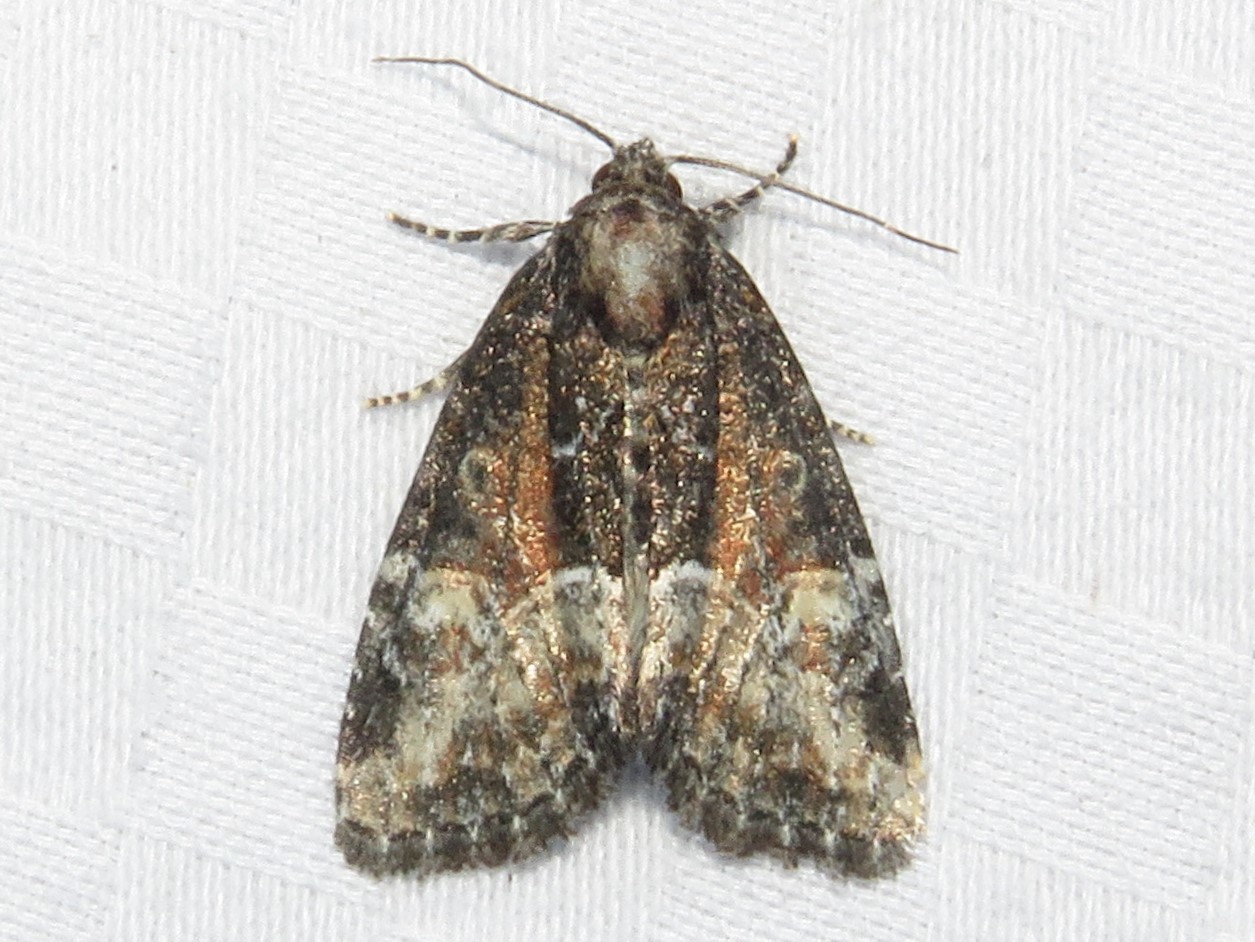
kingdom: Animalia
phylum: Arthropoda
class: Insecta
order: Lepidoptera
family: Noctuidae
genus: Neoligia
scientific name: Neoligia subjuncta
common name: Connected brocade
